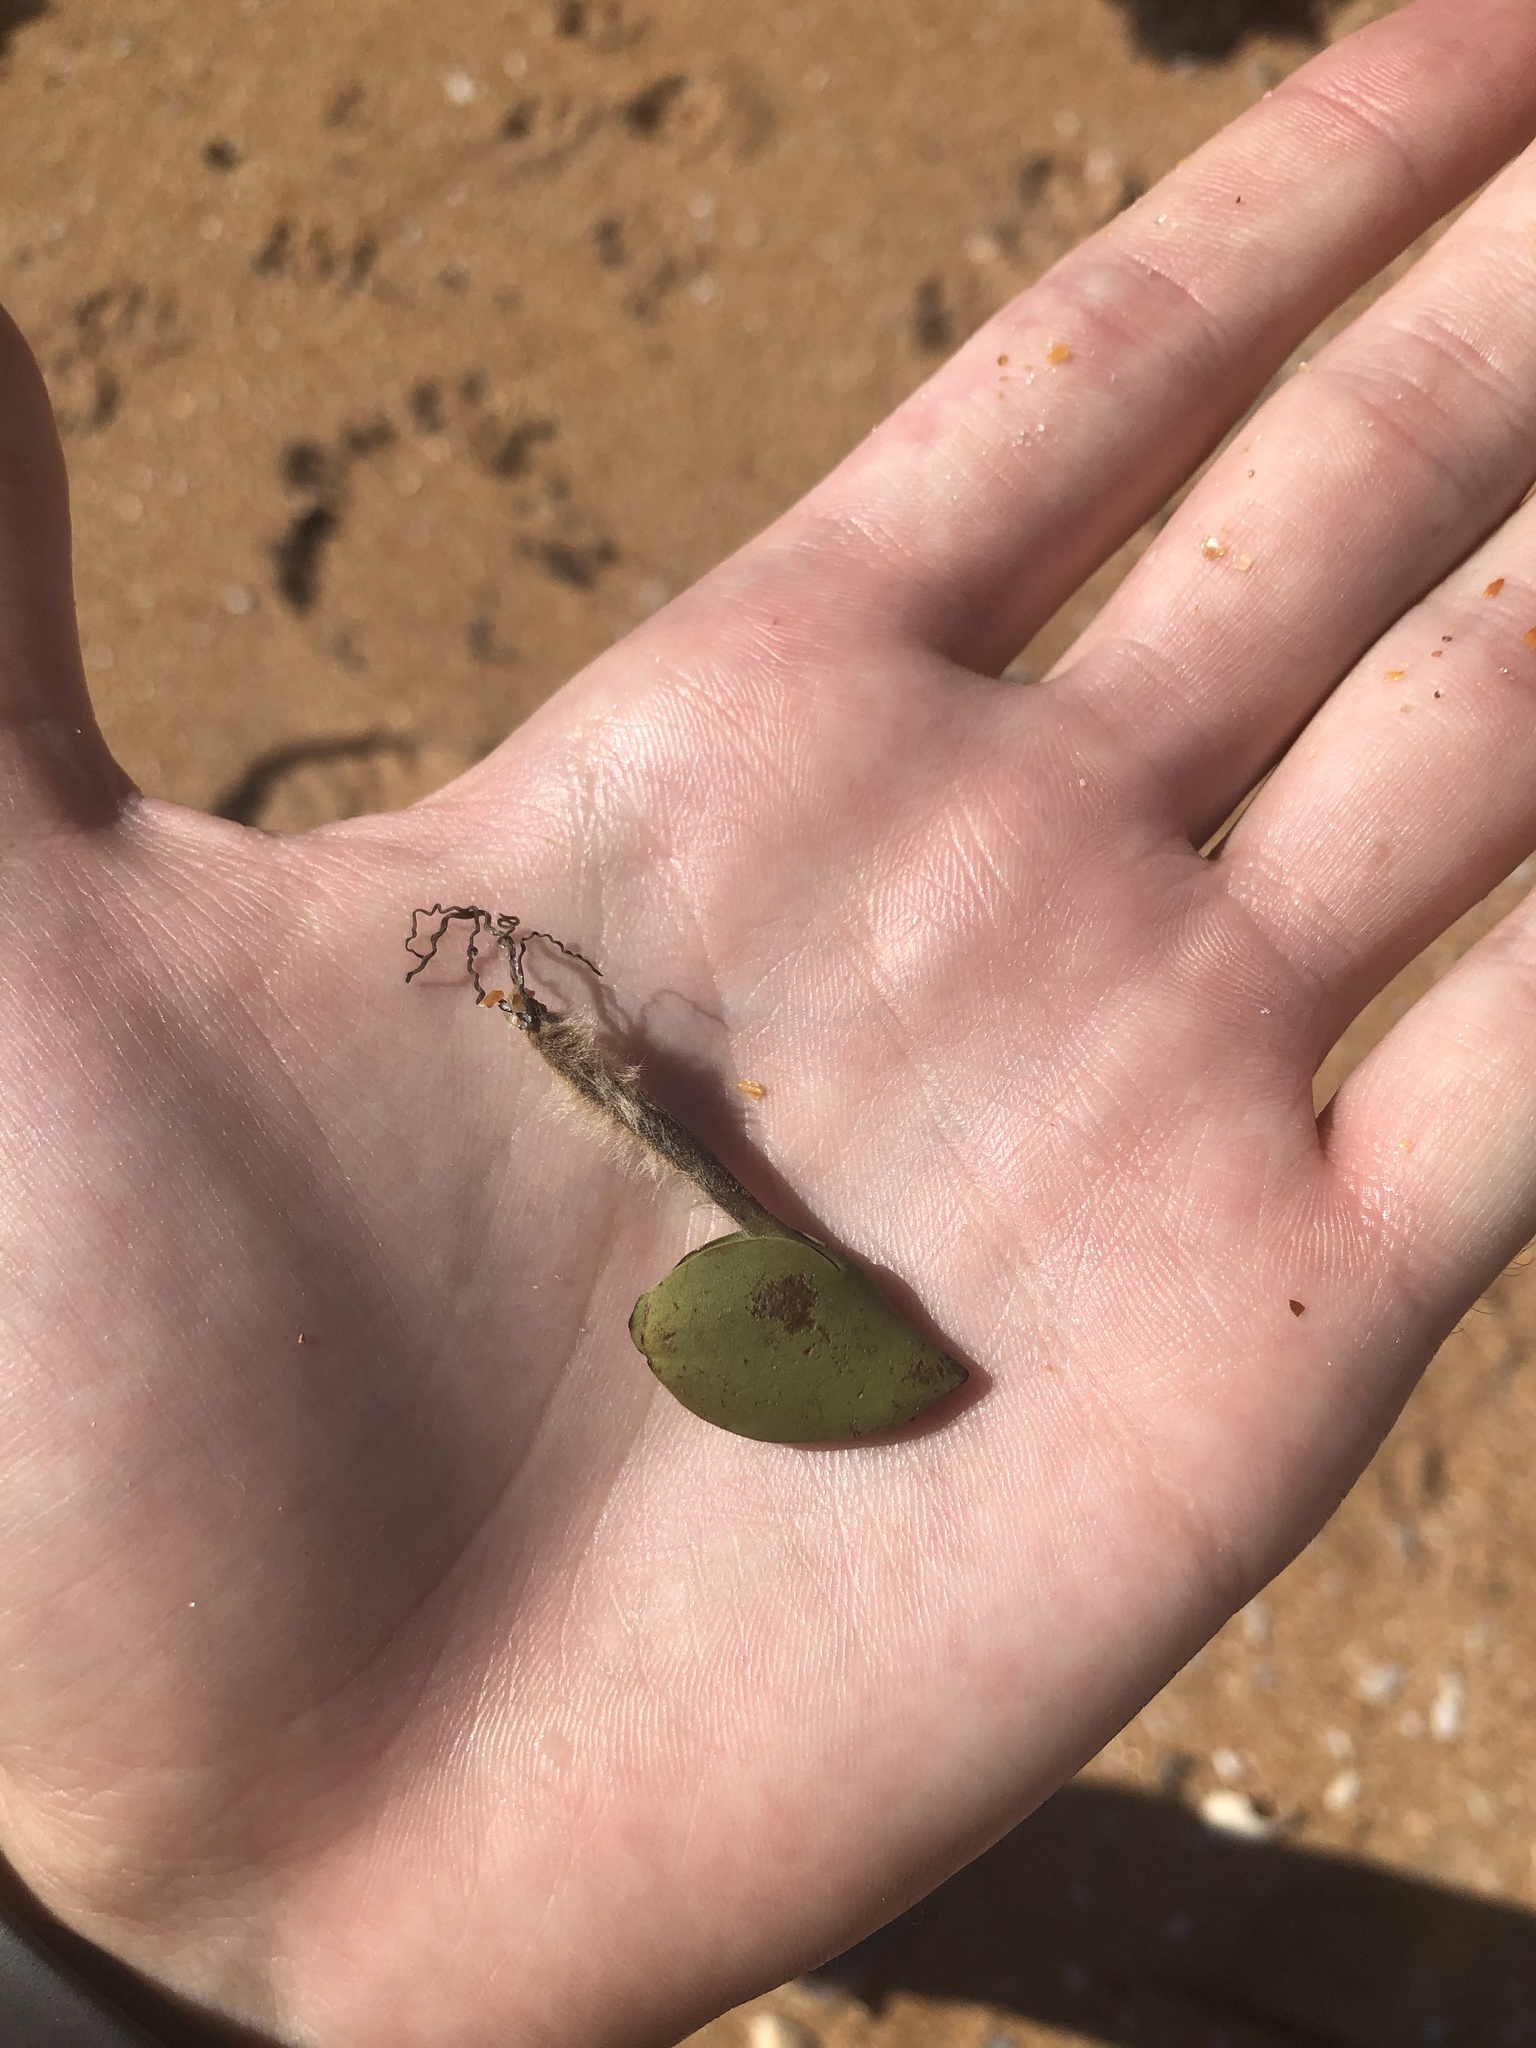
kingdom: Plantae
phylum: Tracheophyta
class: Magnoliopsida
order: Lamiales
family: Acanthaceae
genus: Avicennia
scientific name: Avicennia germinans
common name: Black mangrove
